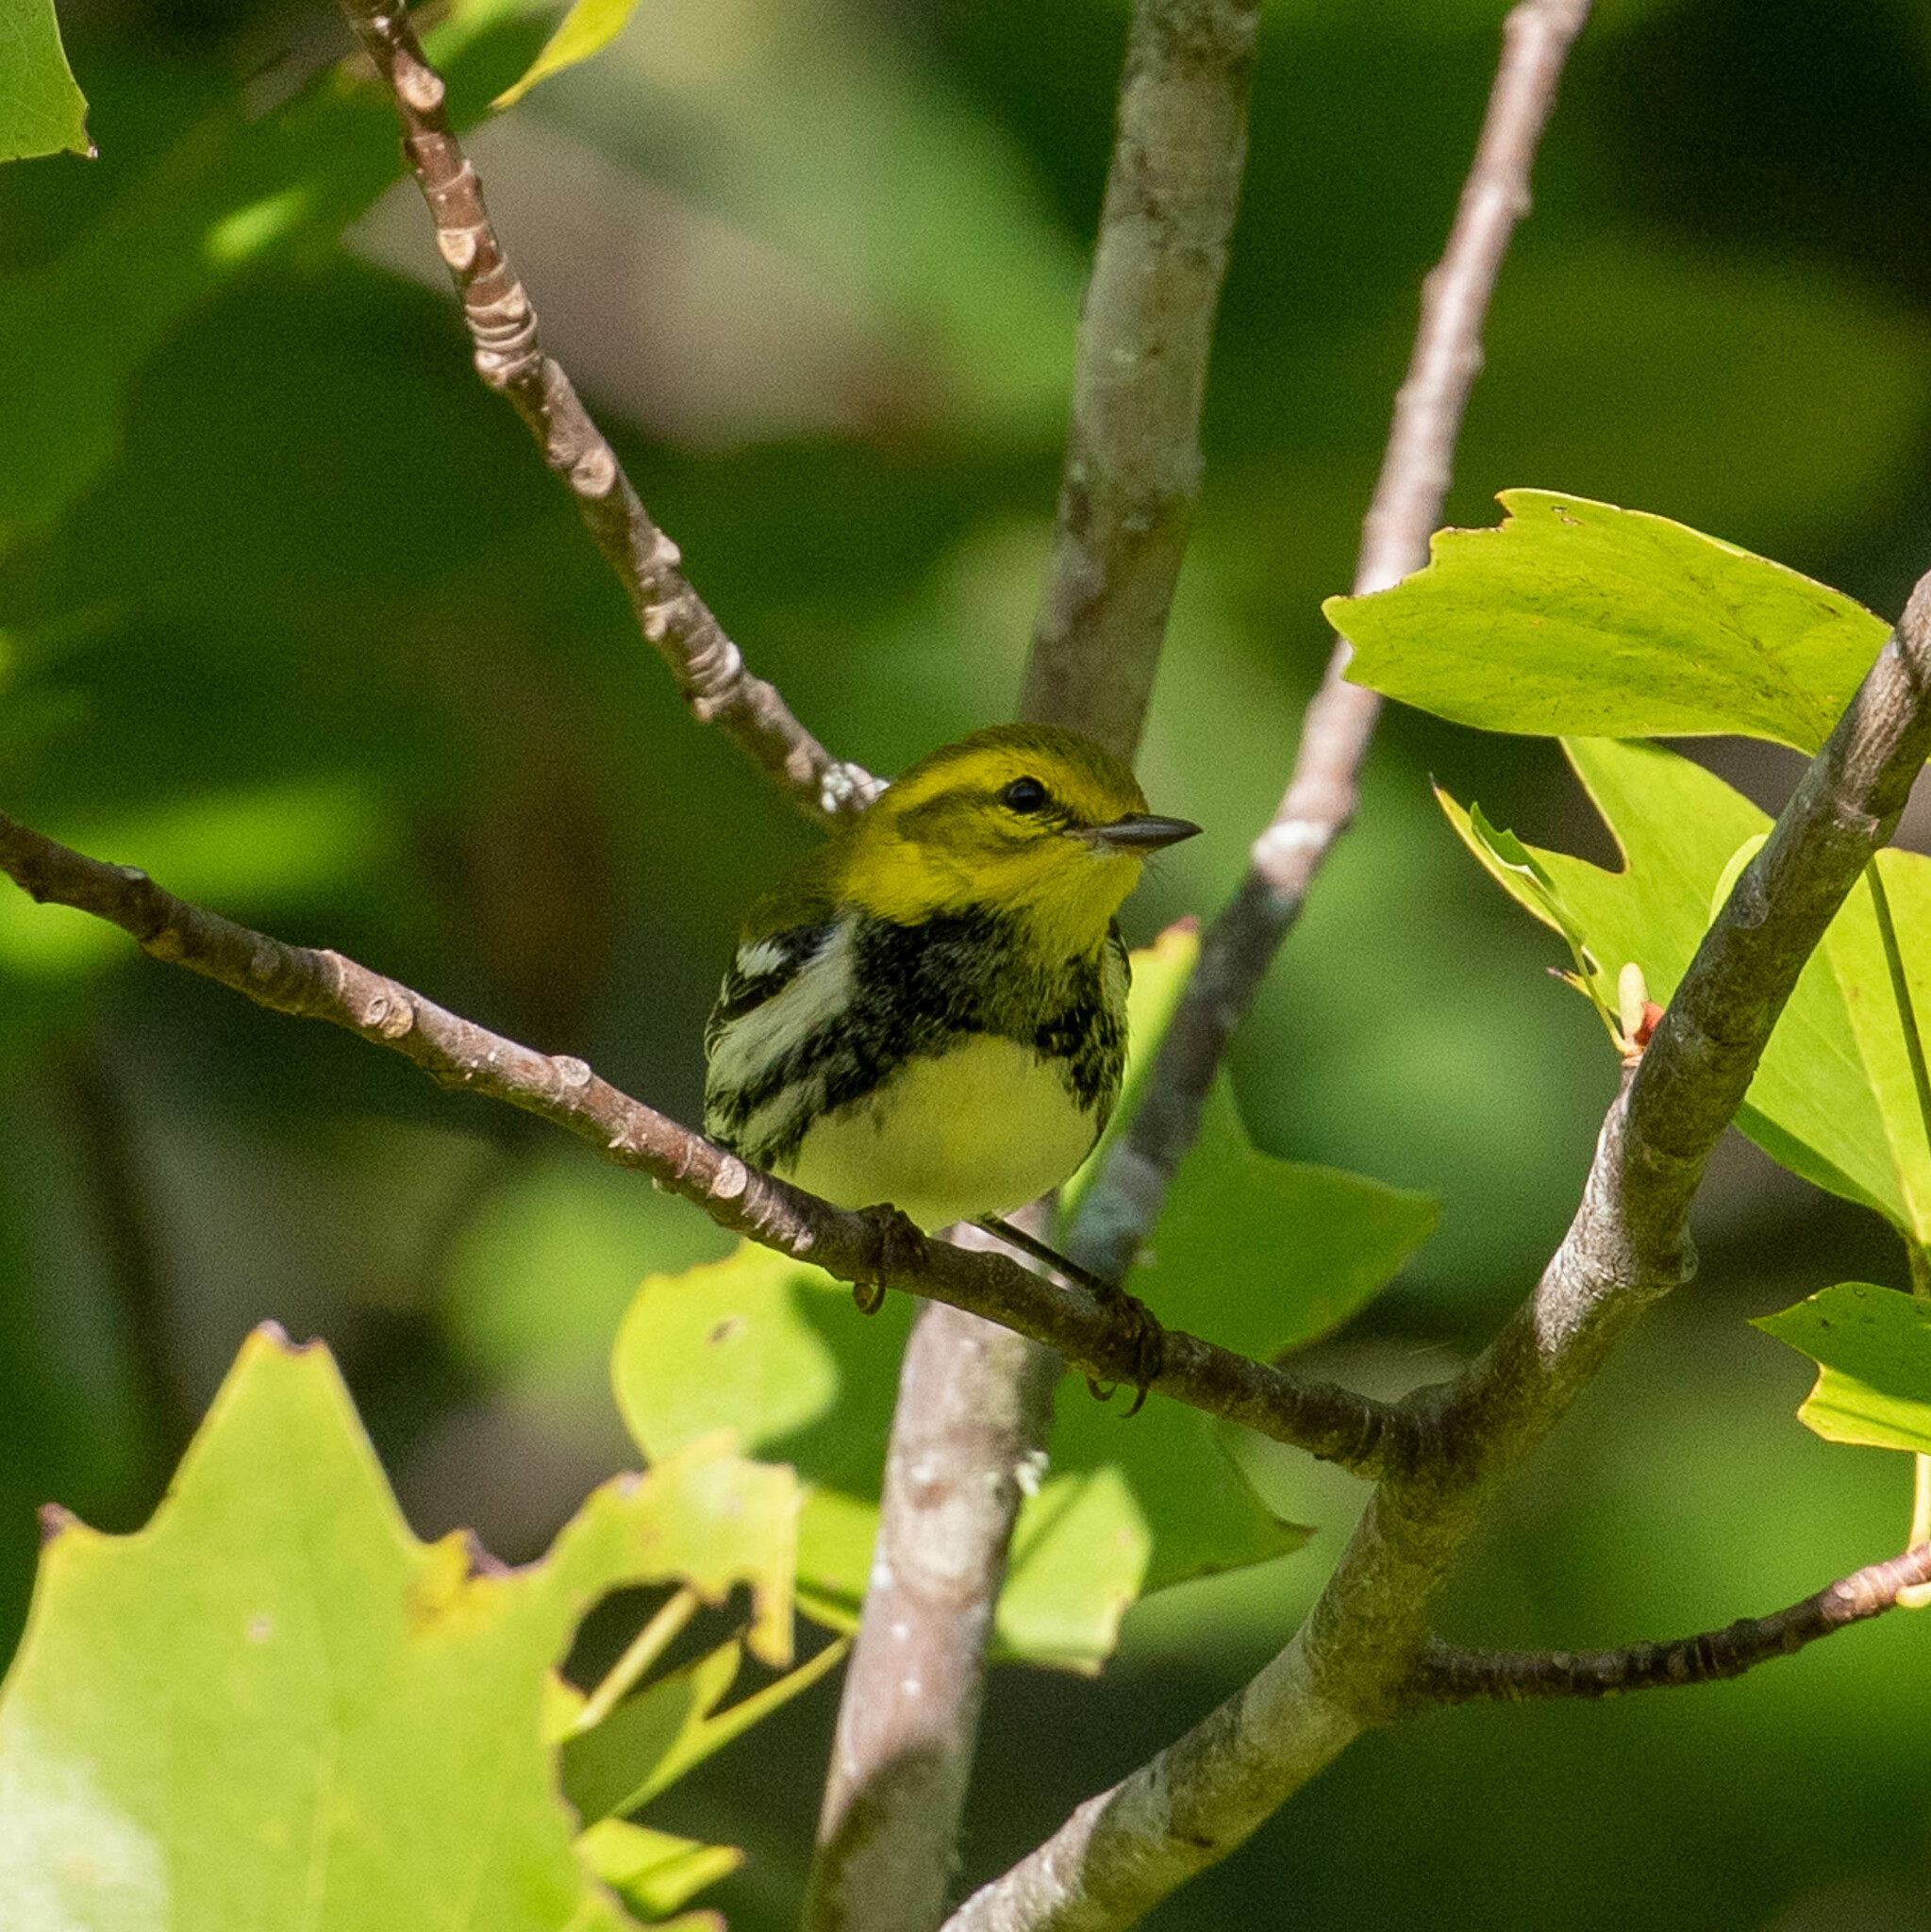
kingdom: Animalia
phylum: Chordata
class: Aves
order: Passeriformes
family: Parulidae
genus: Setophaga
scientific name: Setophaga virens
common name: Black-throated green warbler
